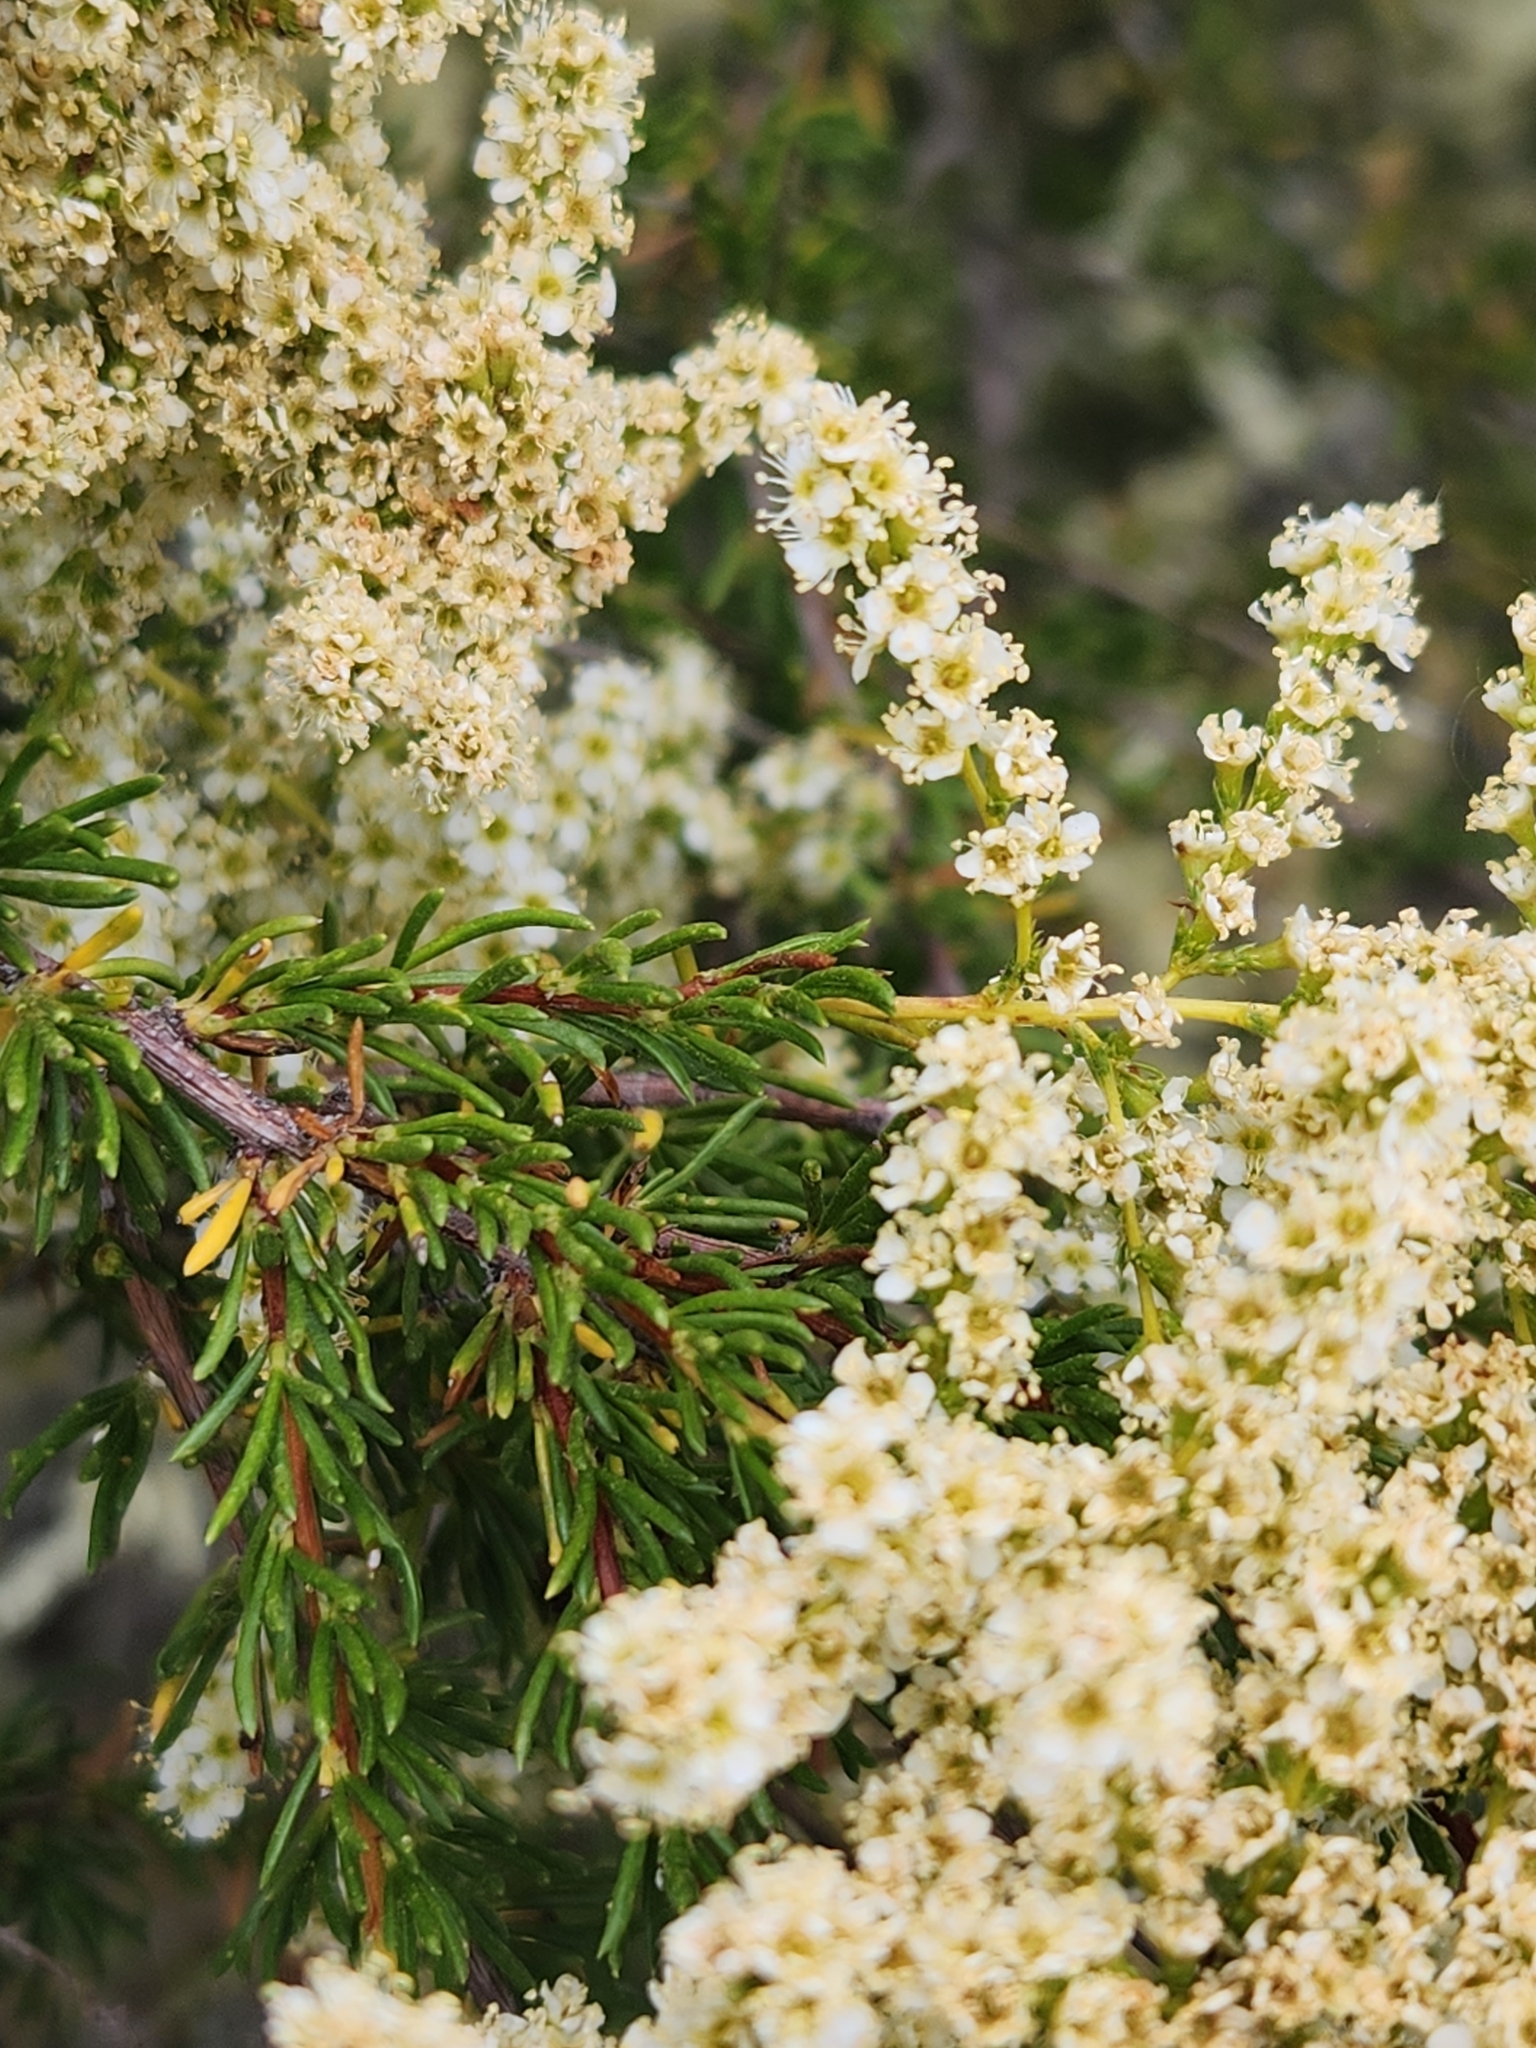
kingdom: Plantae
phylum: Tracheophyta
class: Magnoliopsida
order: Rosales
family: Rosaceae
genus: Adenostoma
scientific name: Adenostoma fasciculatum
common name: Chamise
